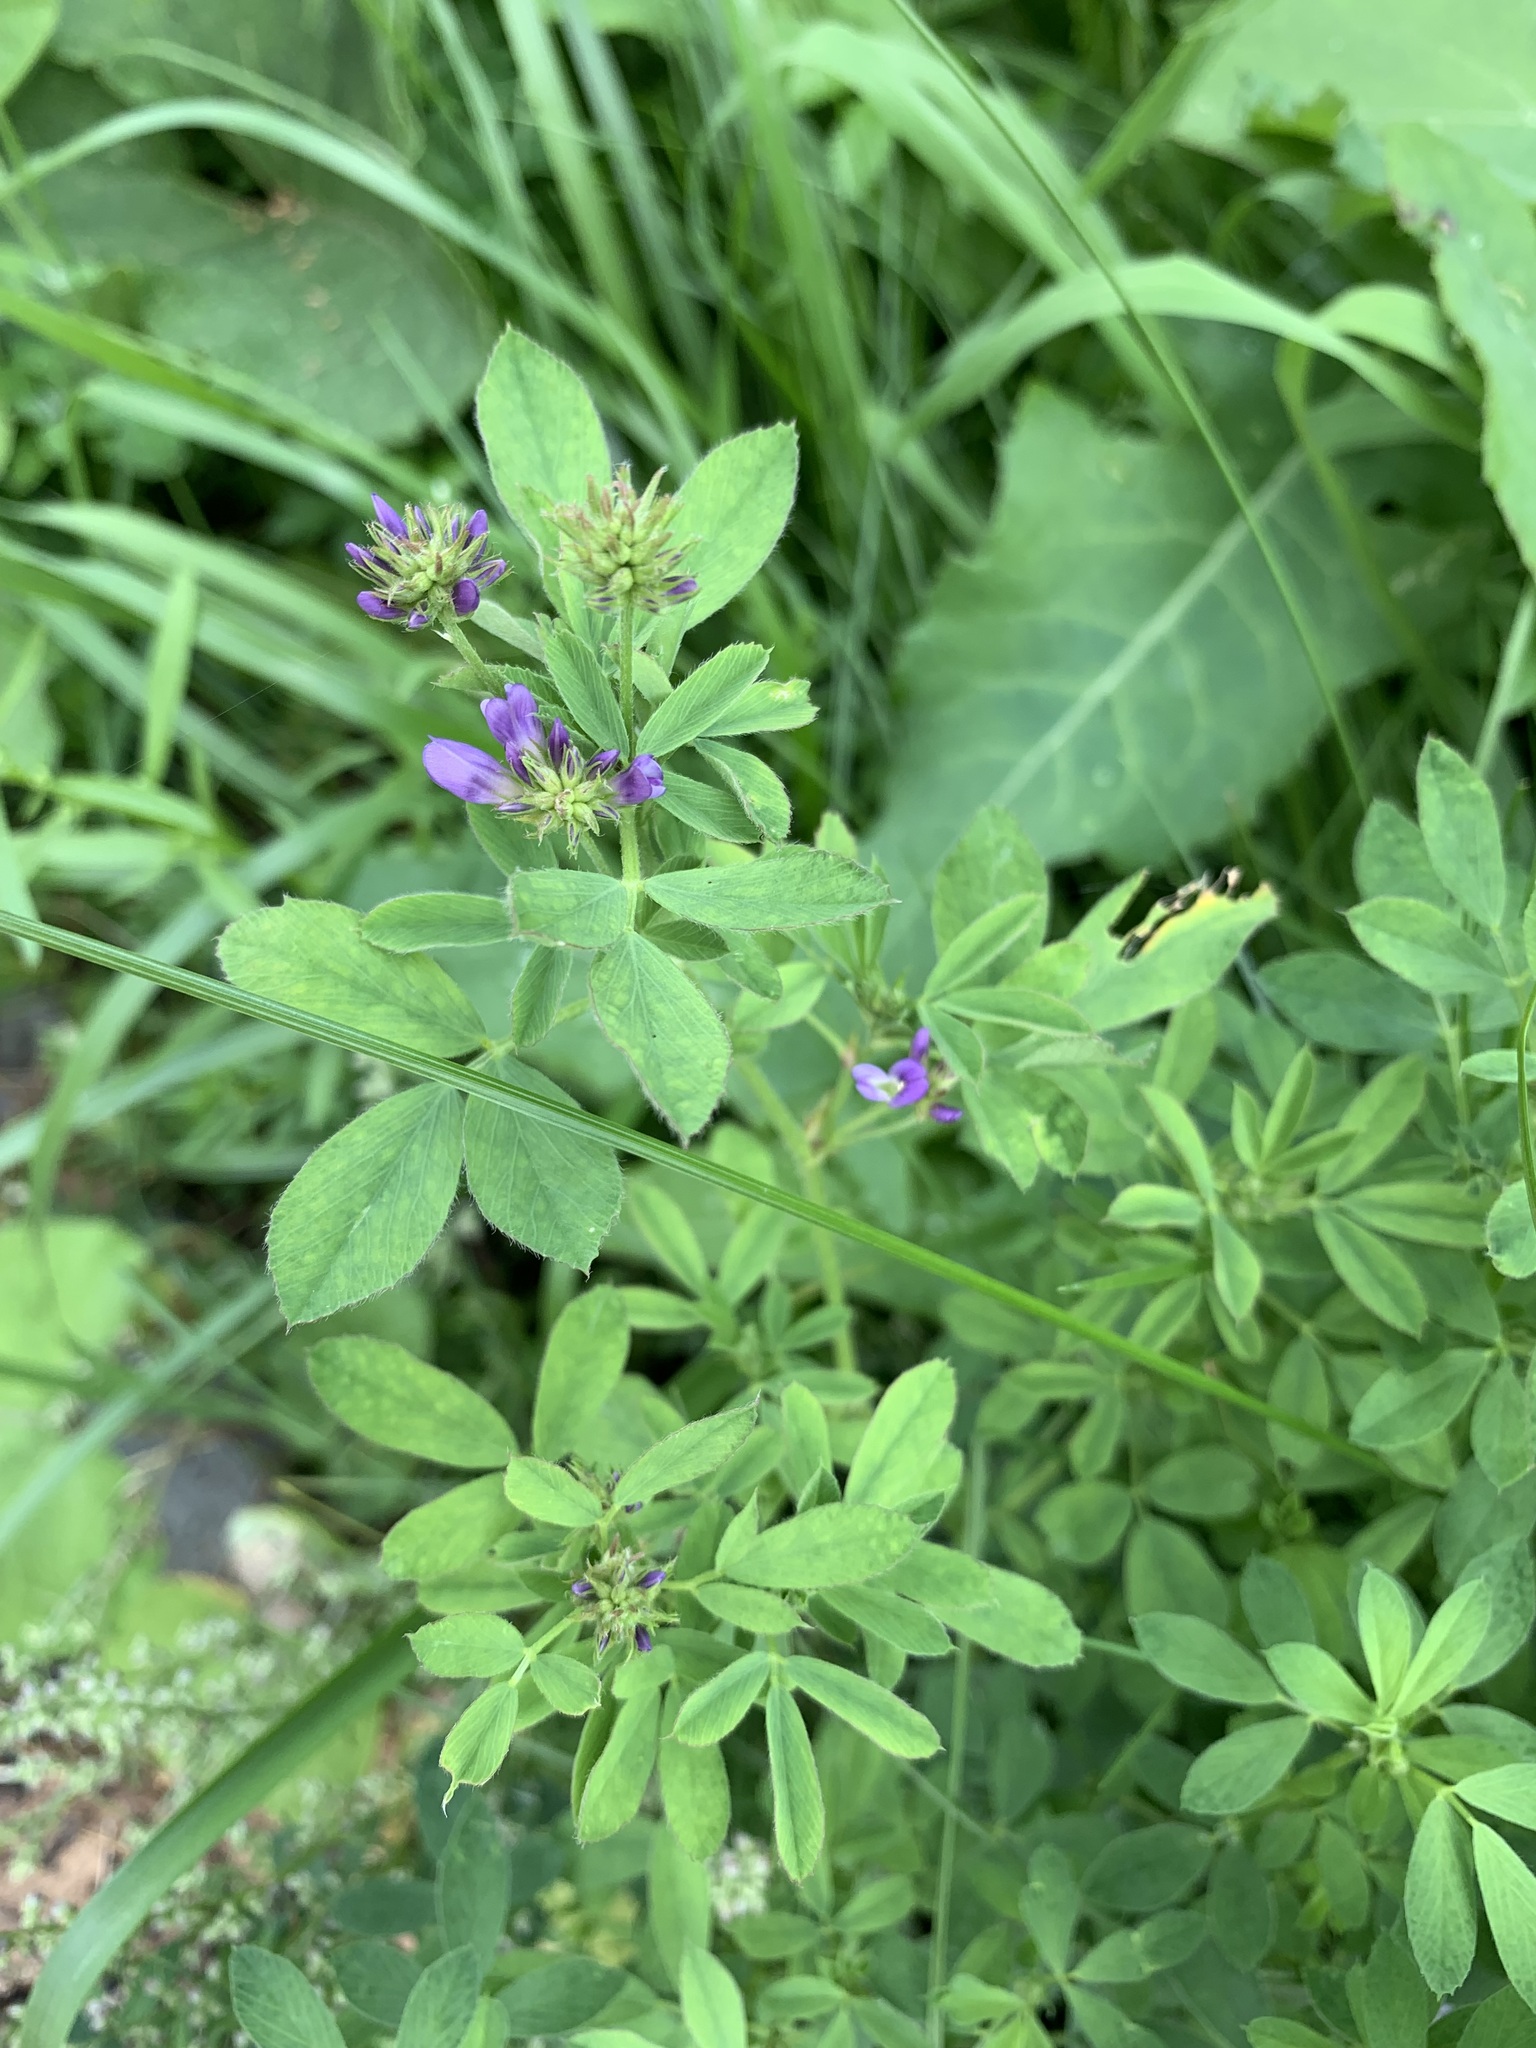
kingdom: Plantae
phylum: Tracheophyta
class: Magnoliopsida
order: Fabales
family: Fabaceae
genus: Medicago
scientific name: Medicago sativa
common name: Alfalfa
